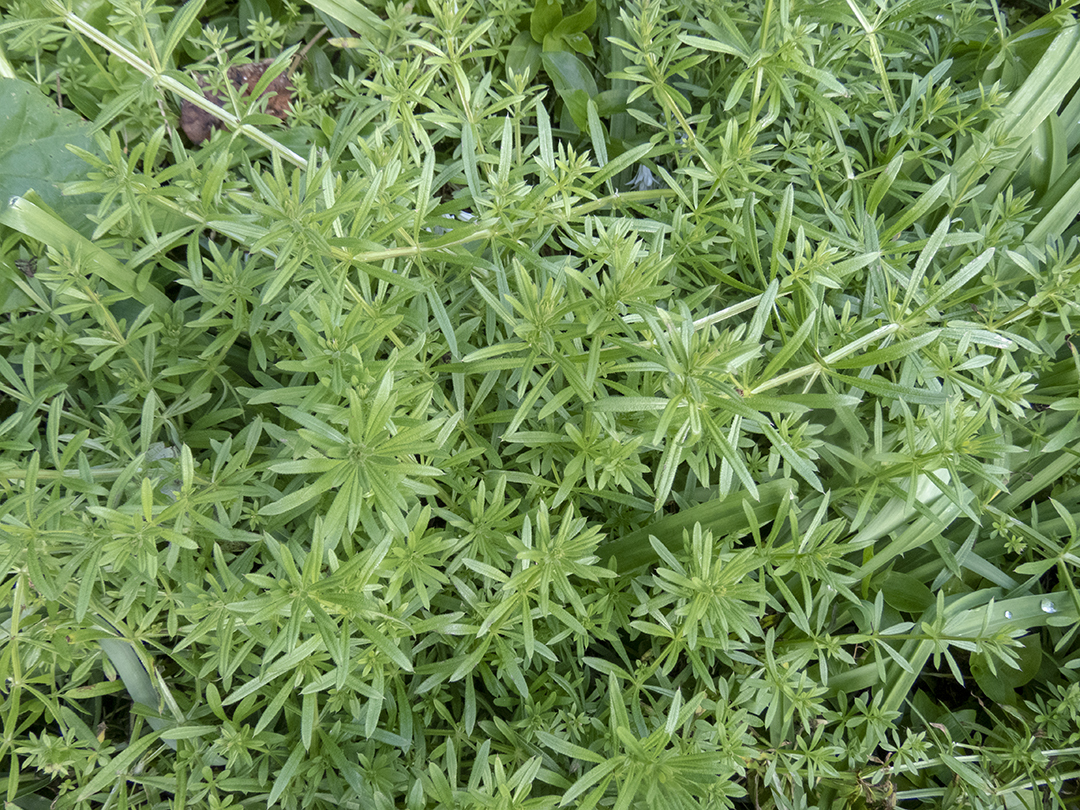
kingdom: Plantae
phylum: Tracheophyta
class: Magnoliopsida
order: Gentianales
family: Rubiaceae
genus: Galium
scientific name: Galium aparine
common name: Cleavers
